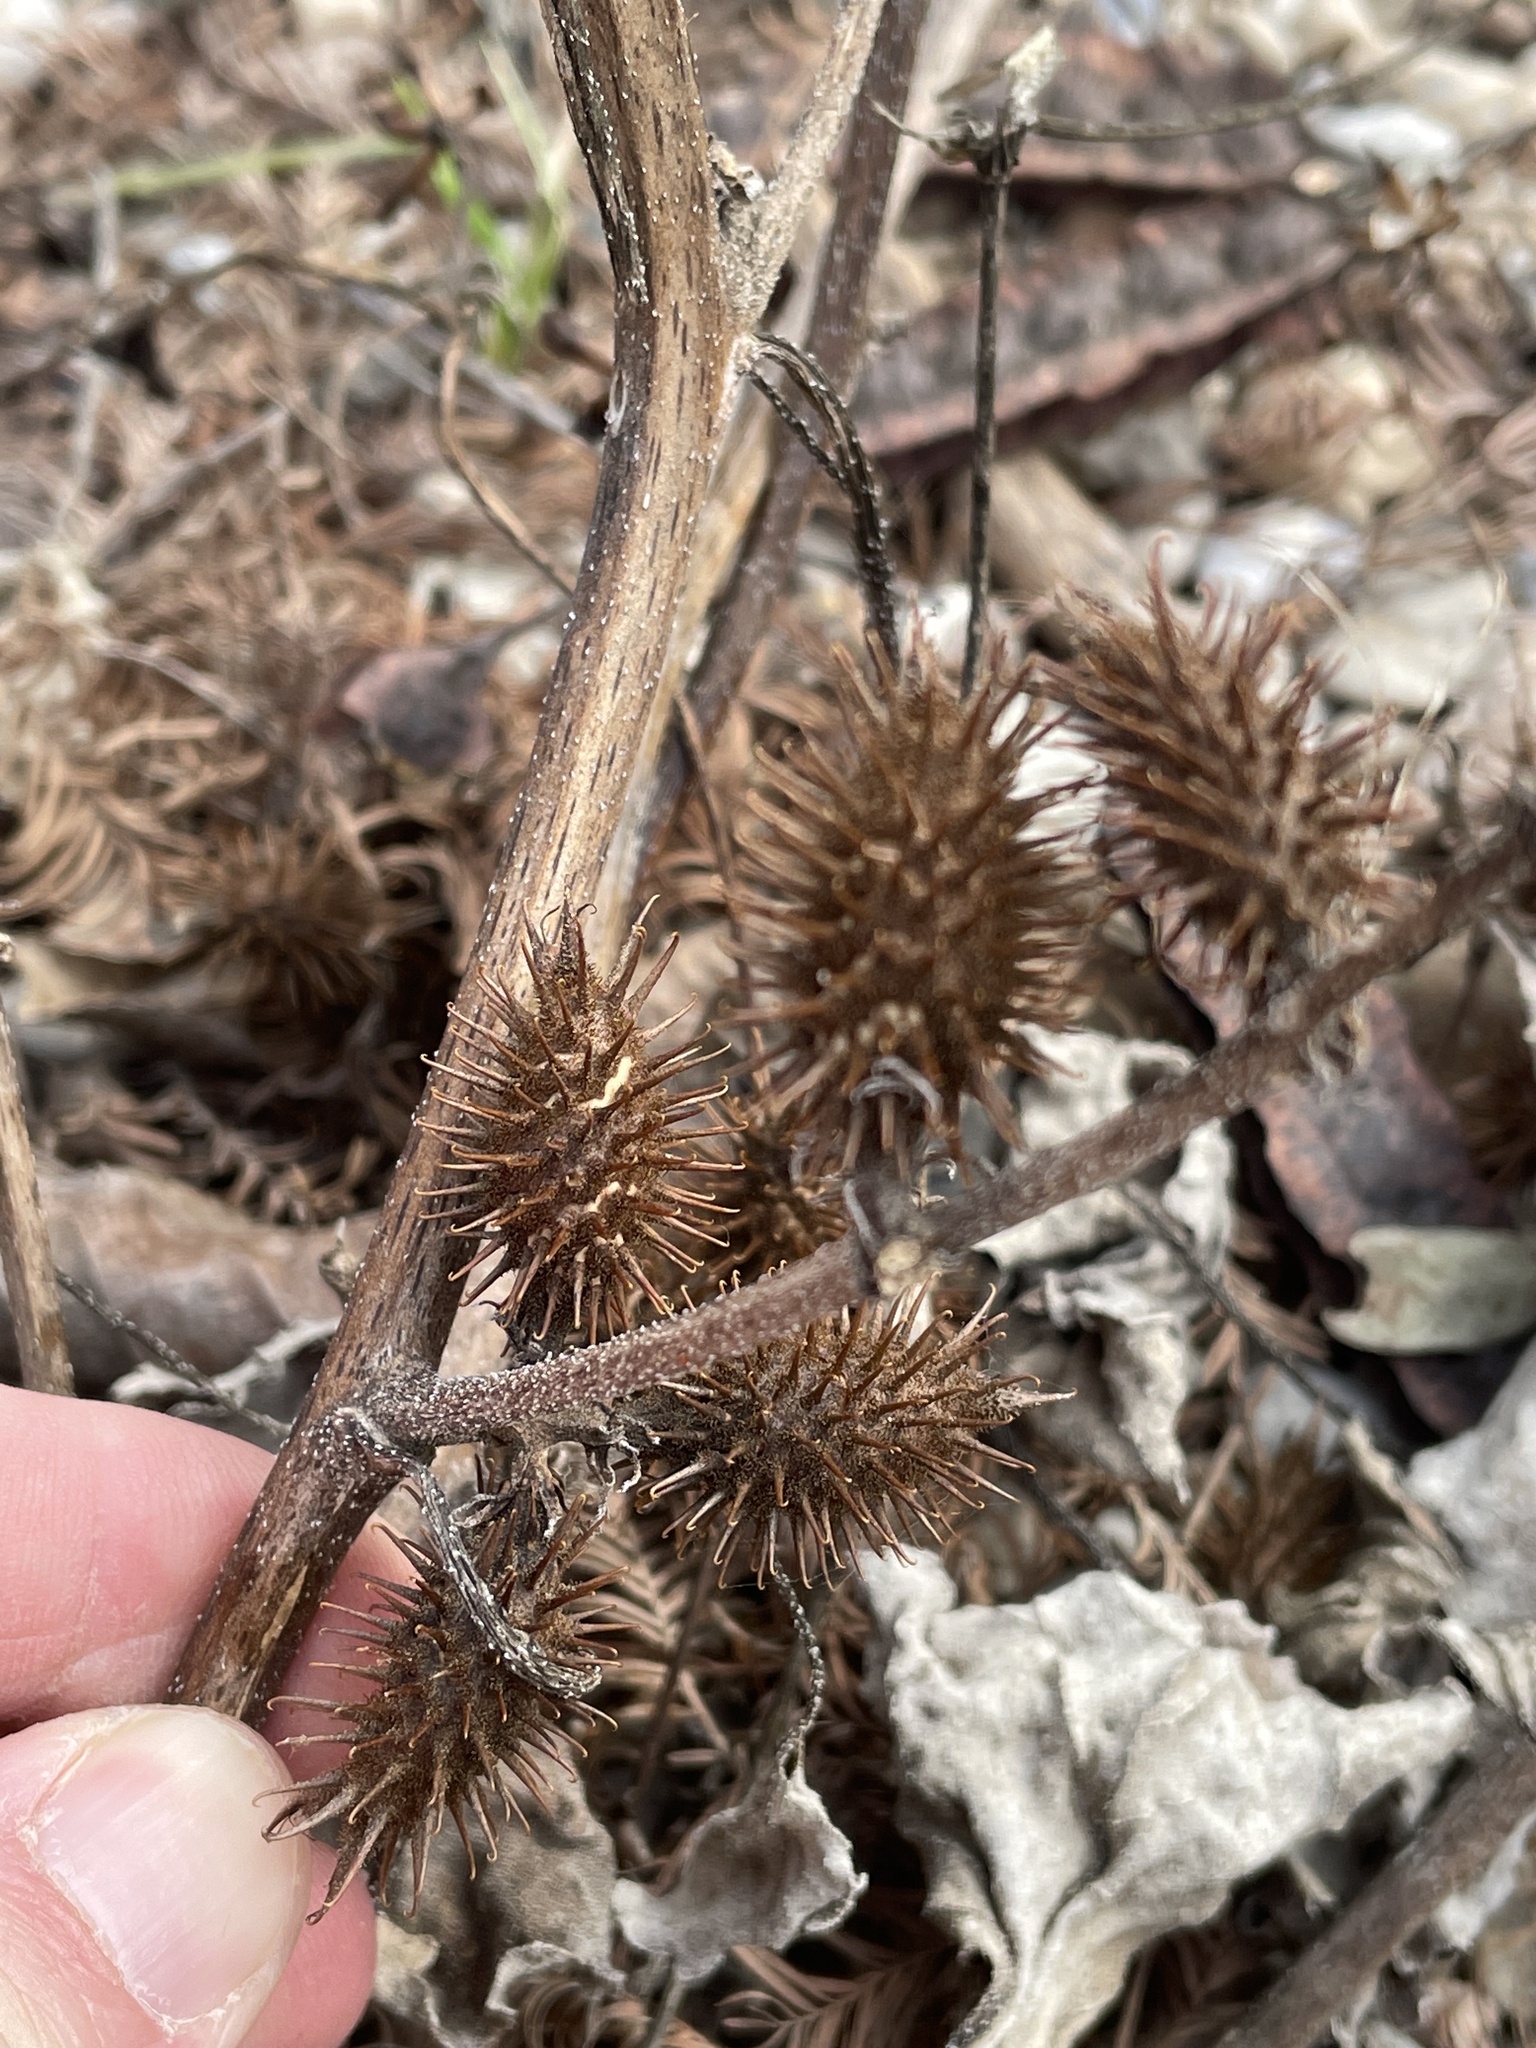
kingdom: Plantae
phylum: Tracheophyta
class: Magnoliopsida
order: Asterales
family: Asteraceae
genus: Xanthium
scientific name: Xanthium strumarium
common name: Rough cocklebur
